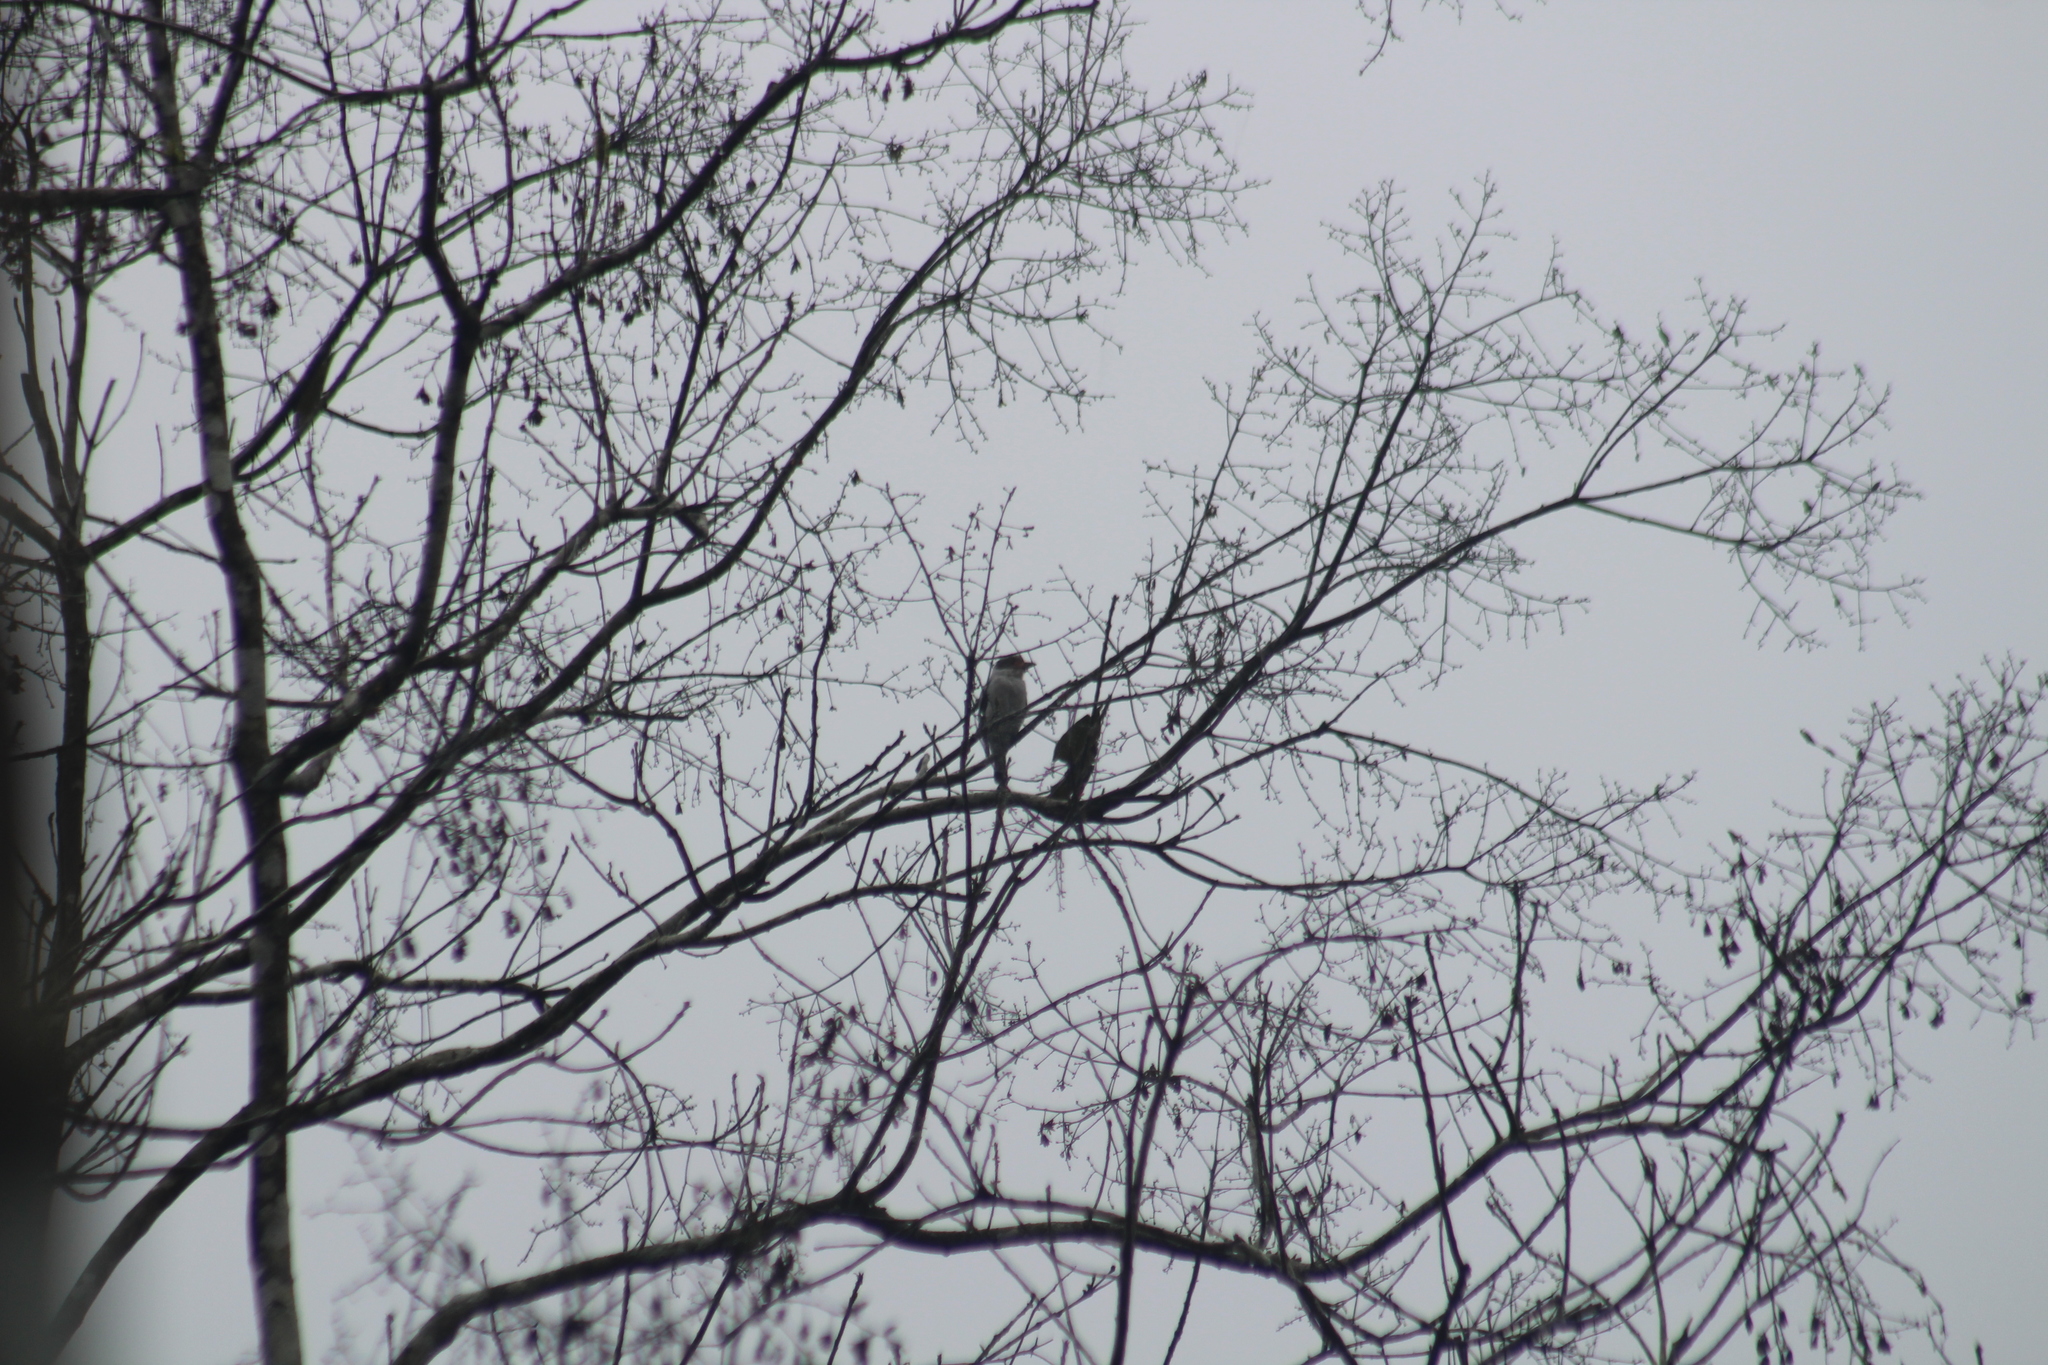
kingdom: Animalia
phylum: Chordata
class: Aves
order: Passeriformes
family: Cotingidae
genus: Tityra
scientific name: Tityra semifasciata
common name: Masked tityra
